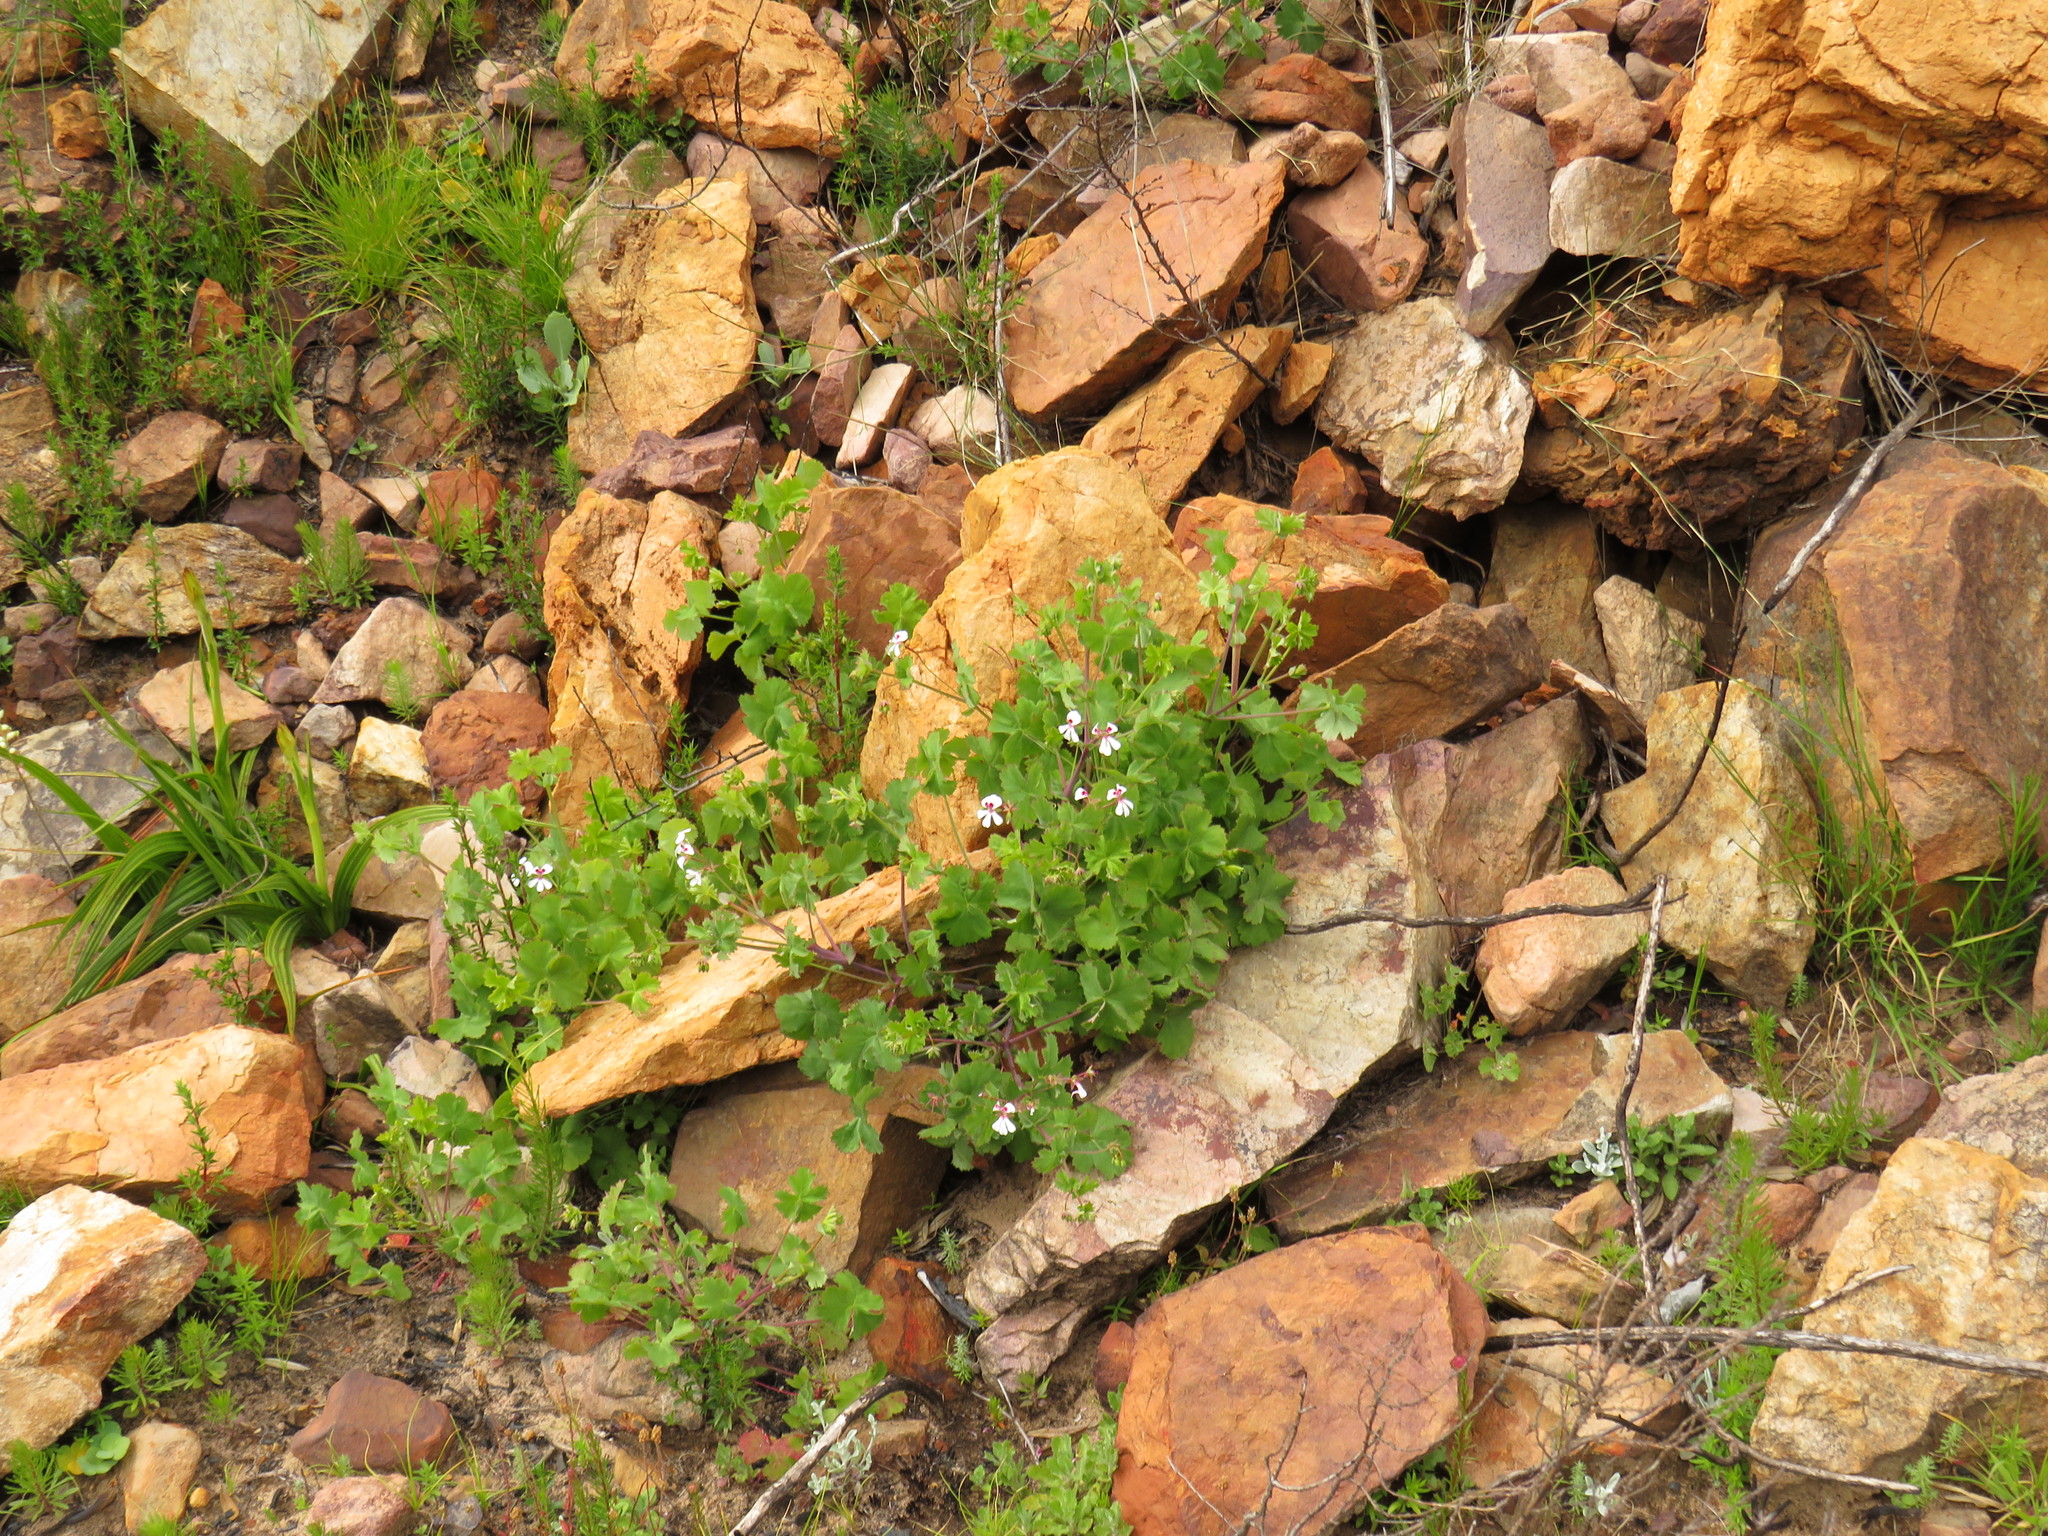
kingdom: Plantae
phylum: Tracheophyta
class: Magnoliopsida
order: Geraniales
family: Geraniaceae
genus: Pelargonium
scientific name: Pelargonium patulum
